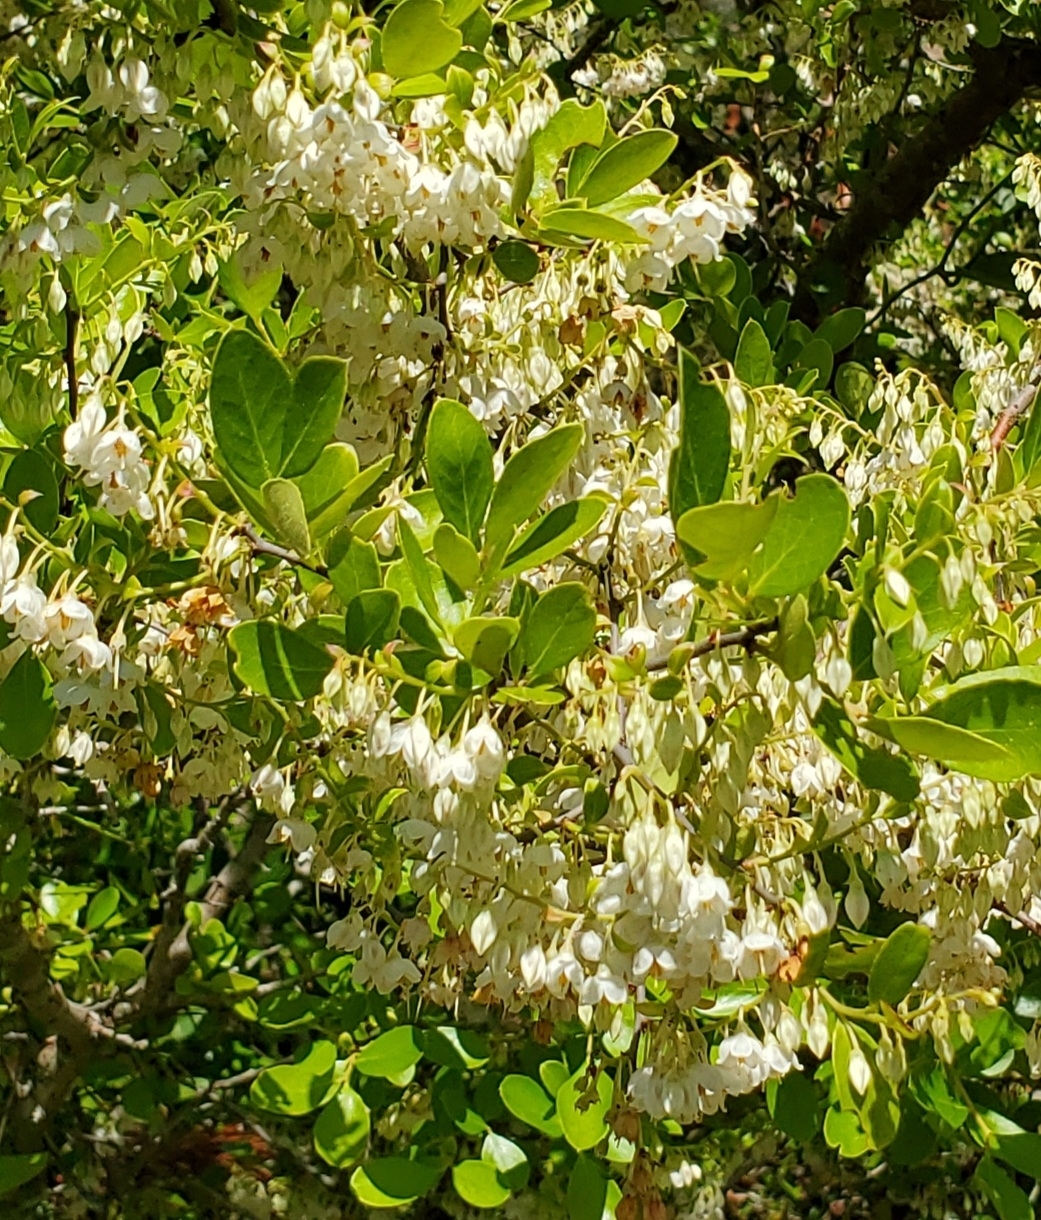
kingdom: Plantae
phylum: Tracheophyta
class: Magnoliopsida
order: Ericales
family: Ericaceae
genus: Vaccinium
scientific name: Vaccinium arboreum
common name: Farkleberry
